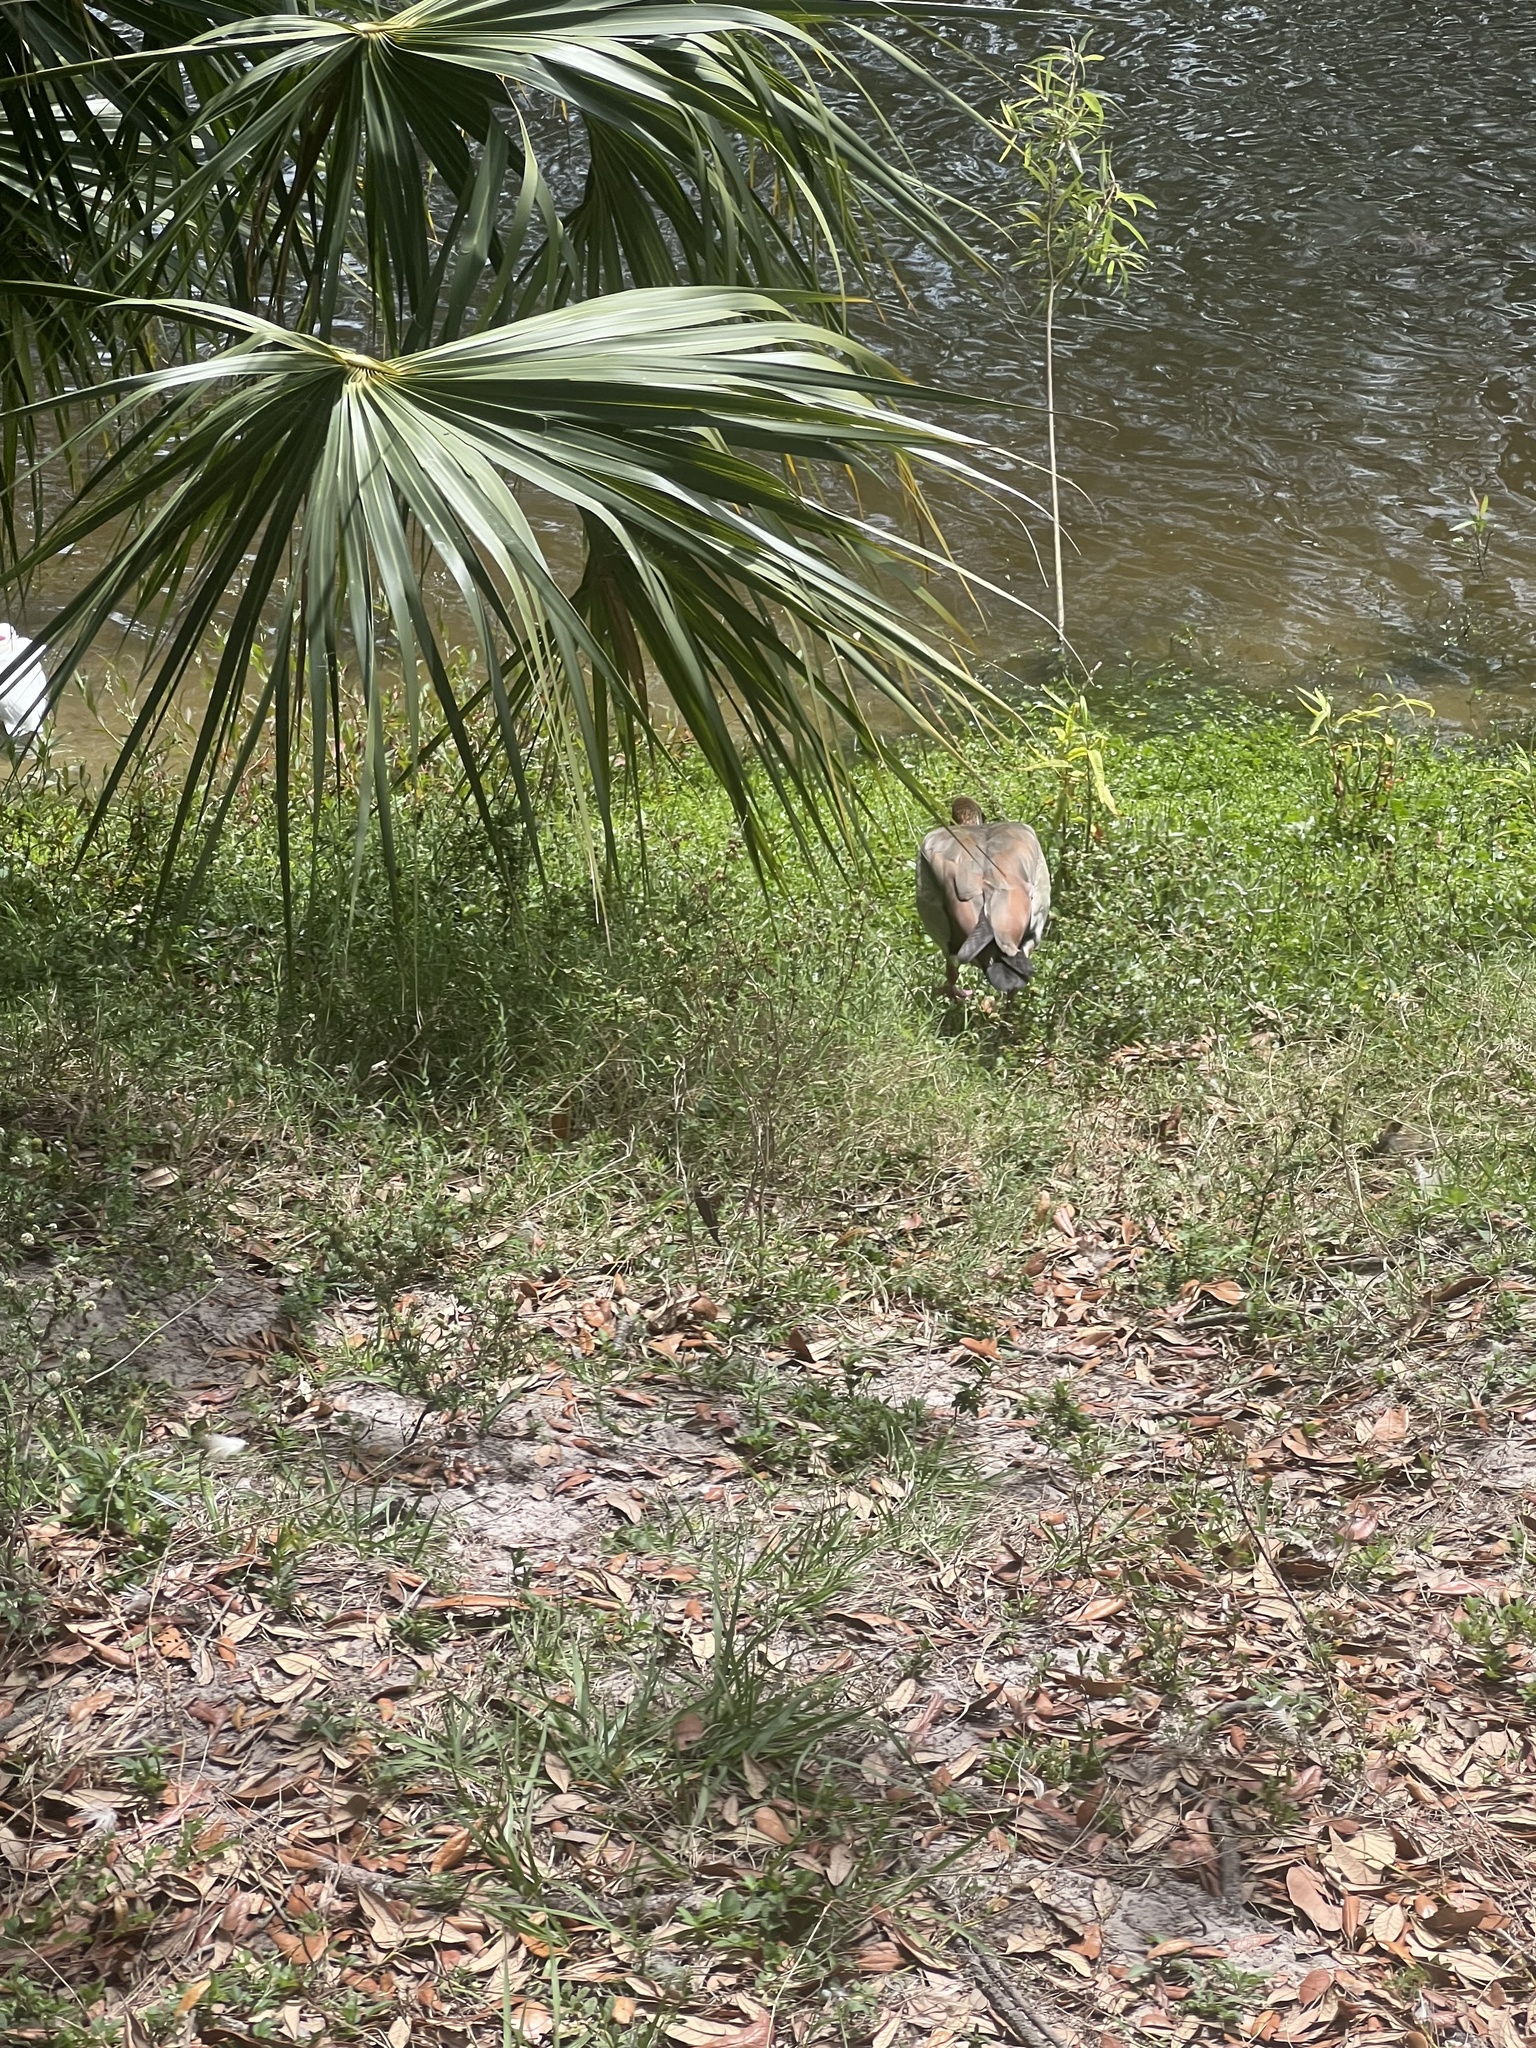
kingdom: Animalia
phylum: Chordata
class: Aves
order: Anseriformes
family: Anatidae
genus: Alopochen
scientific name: Alopochen aegyptiaca
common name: Egyptian goose
